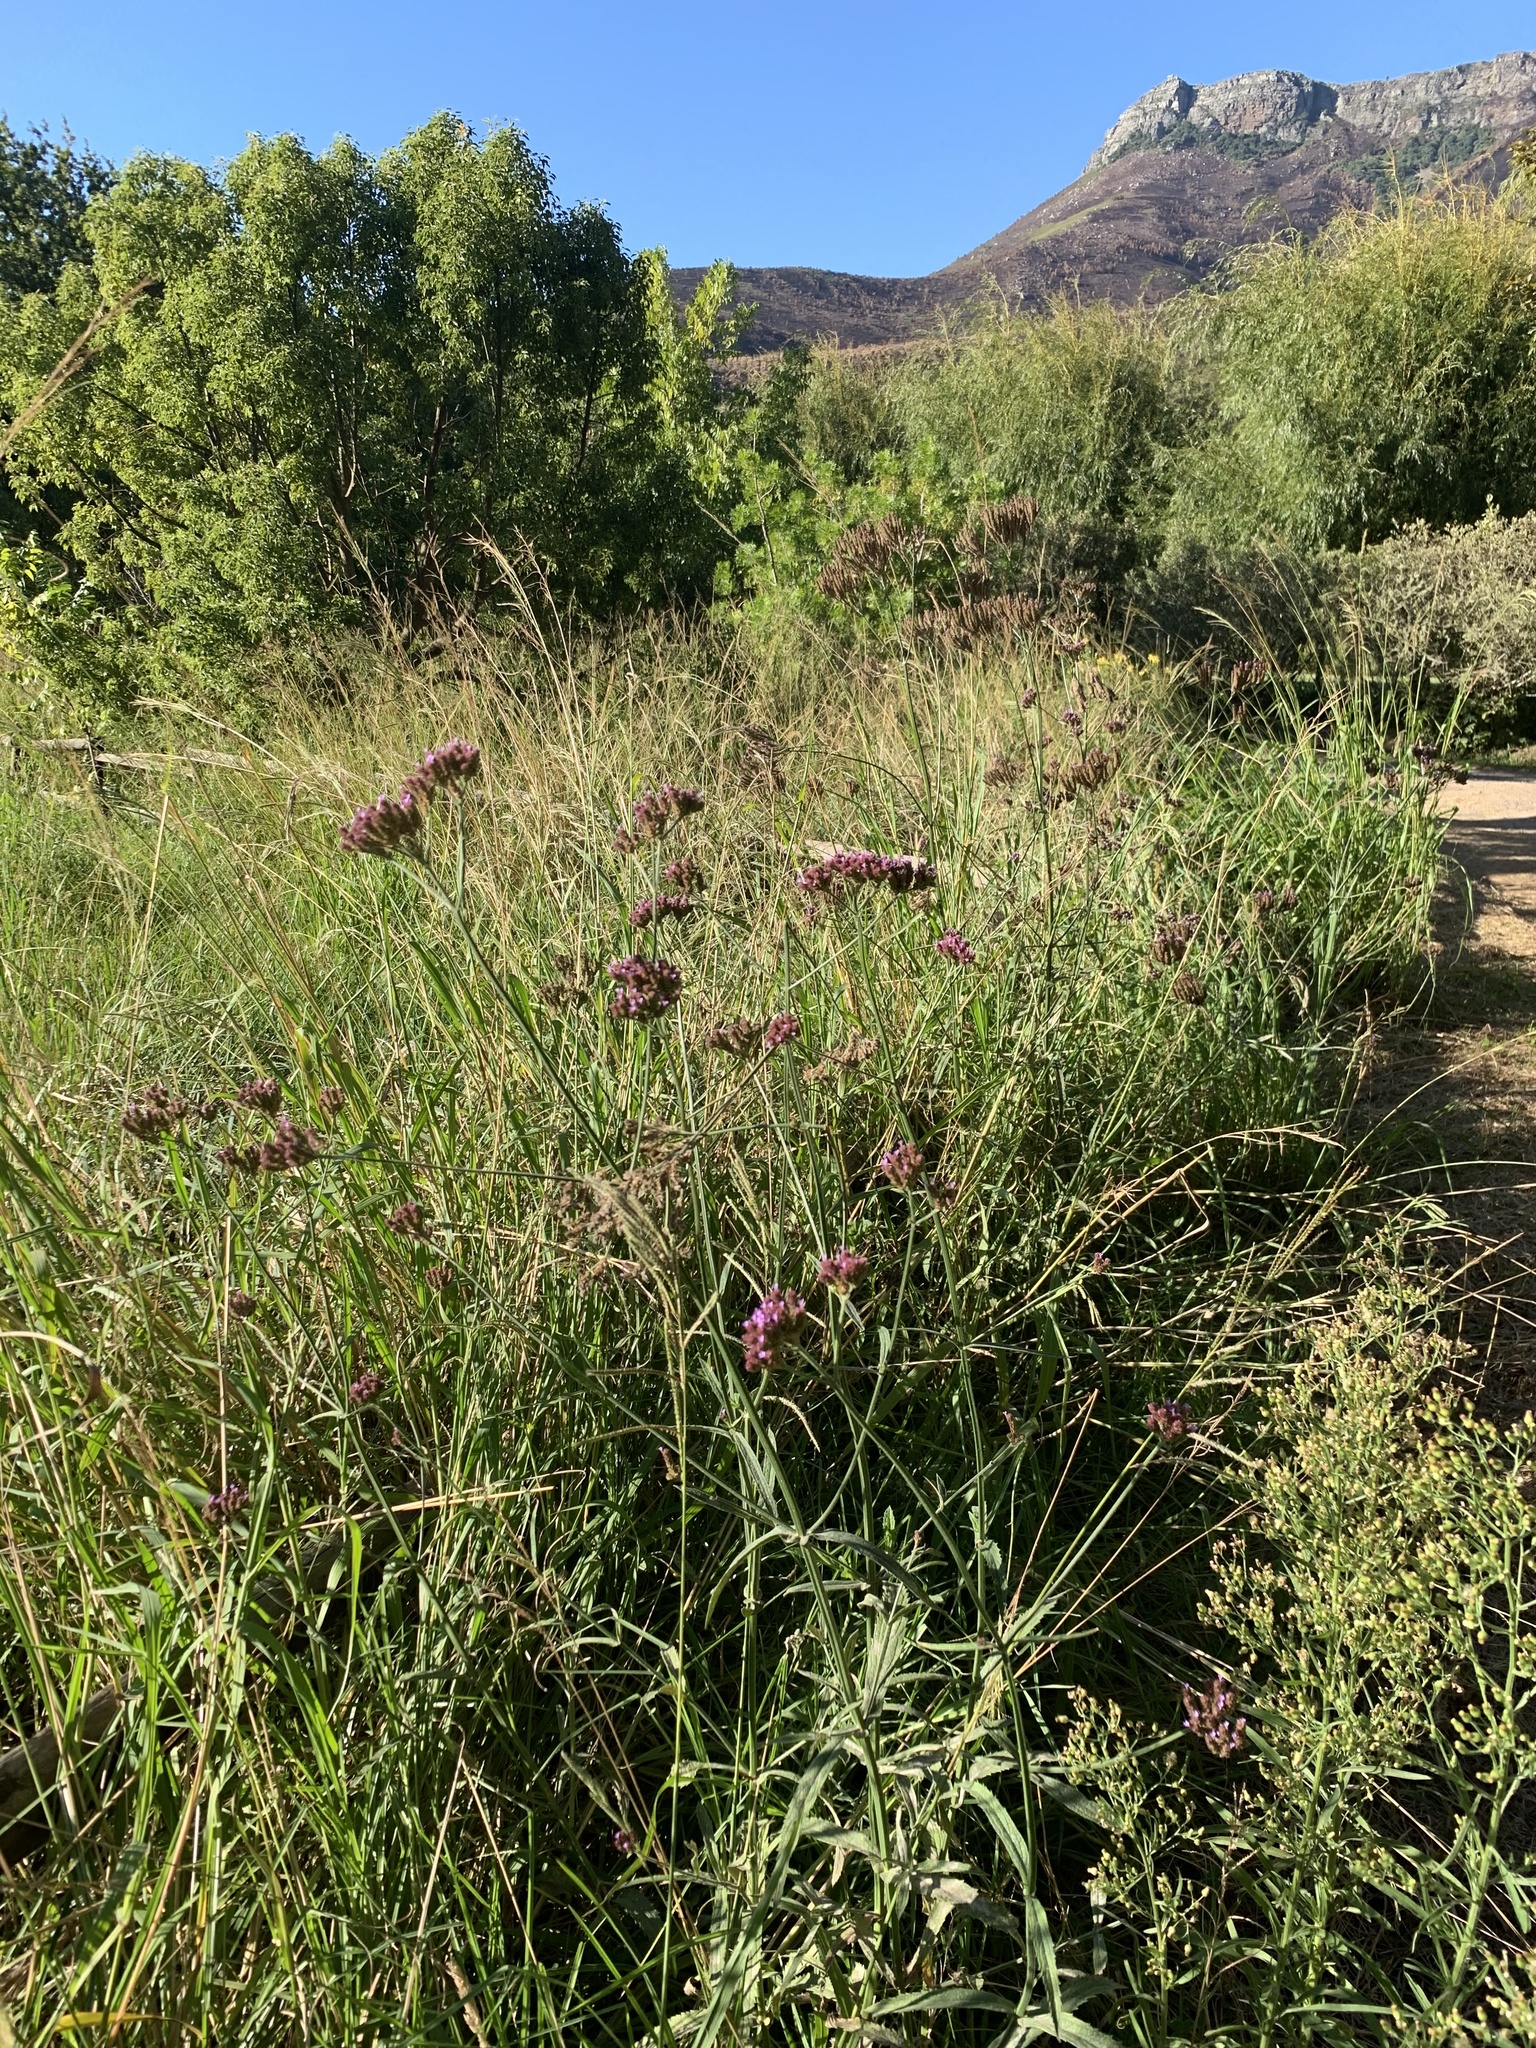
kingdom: Plantae
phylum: Tracheophyta
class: Magnoliopsida
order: Lamiales
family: Verbenaceae
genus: Verbena
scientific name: Verbena bonariensis
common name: Purpletop vervain
